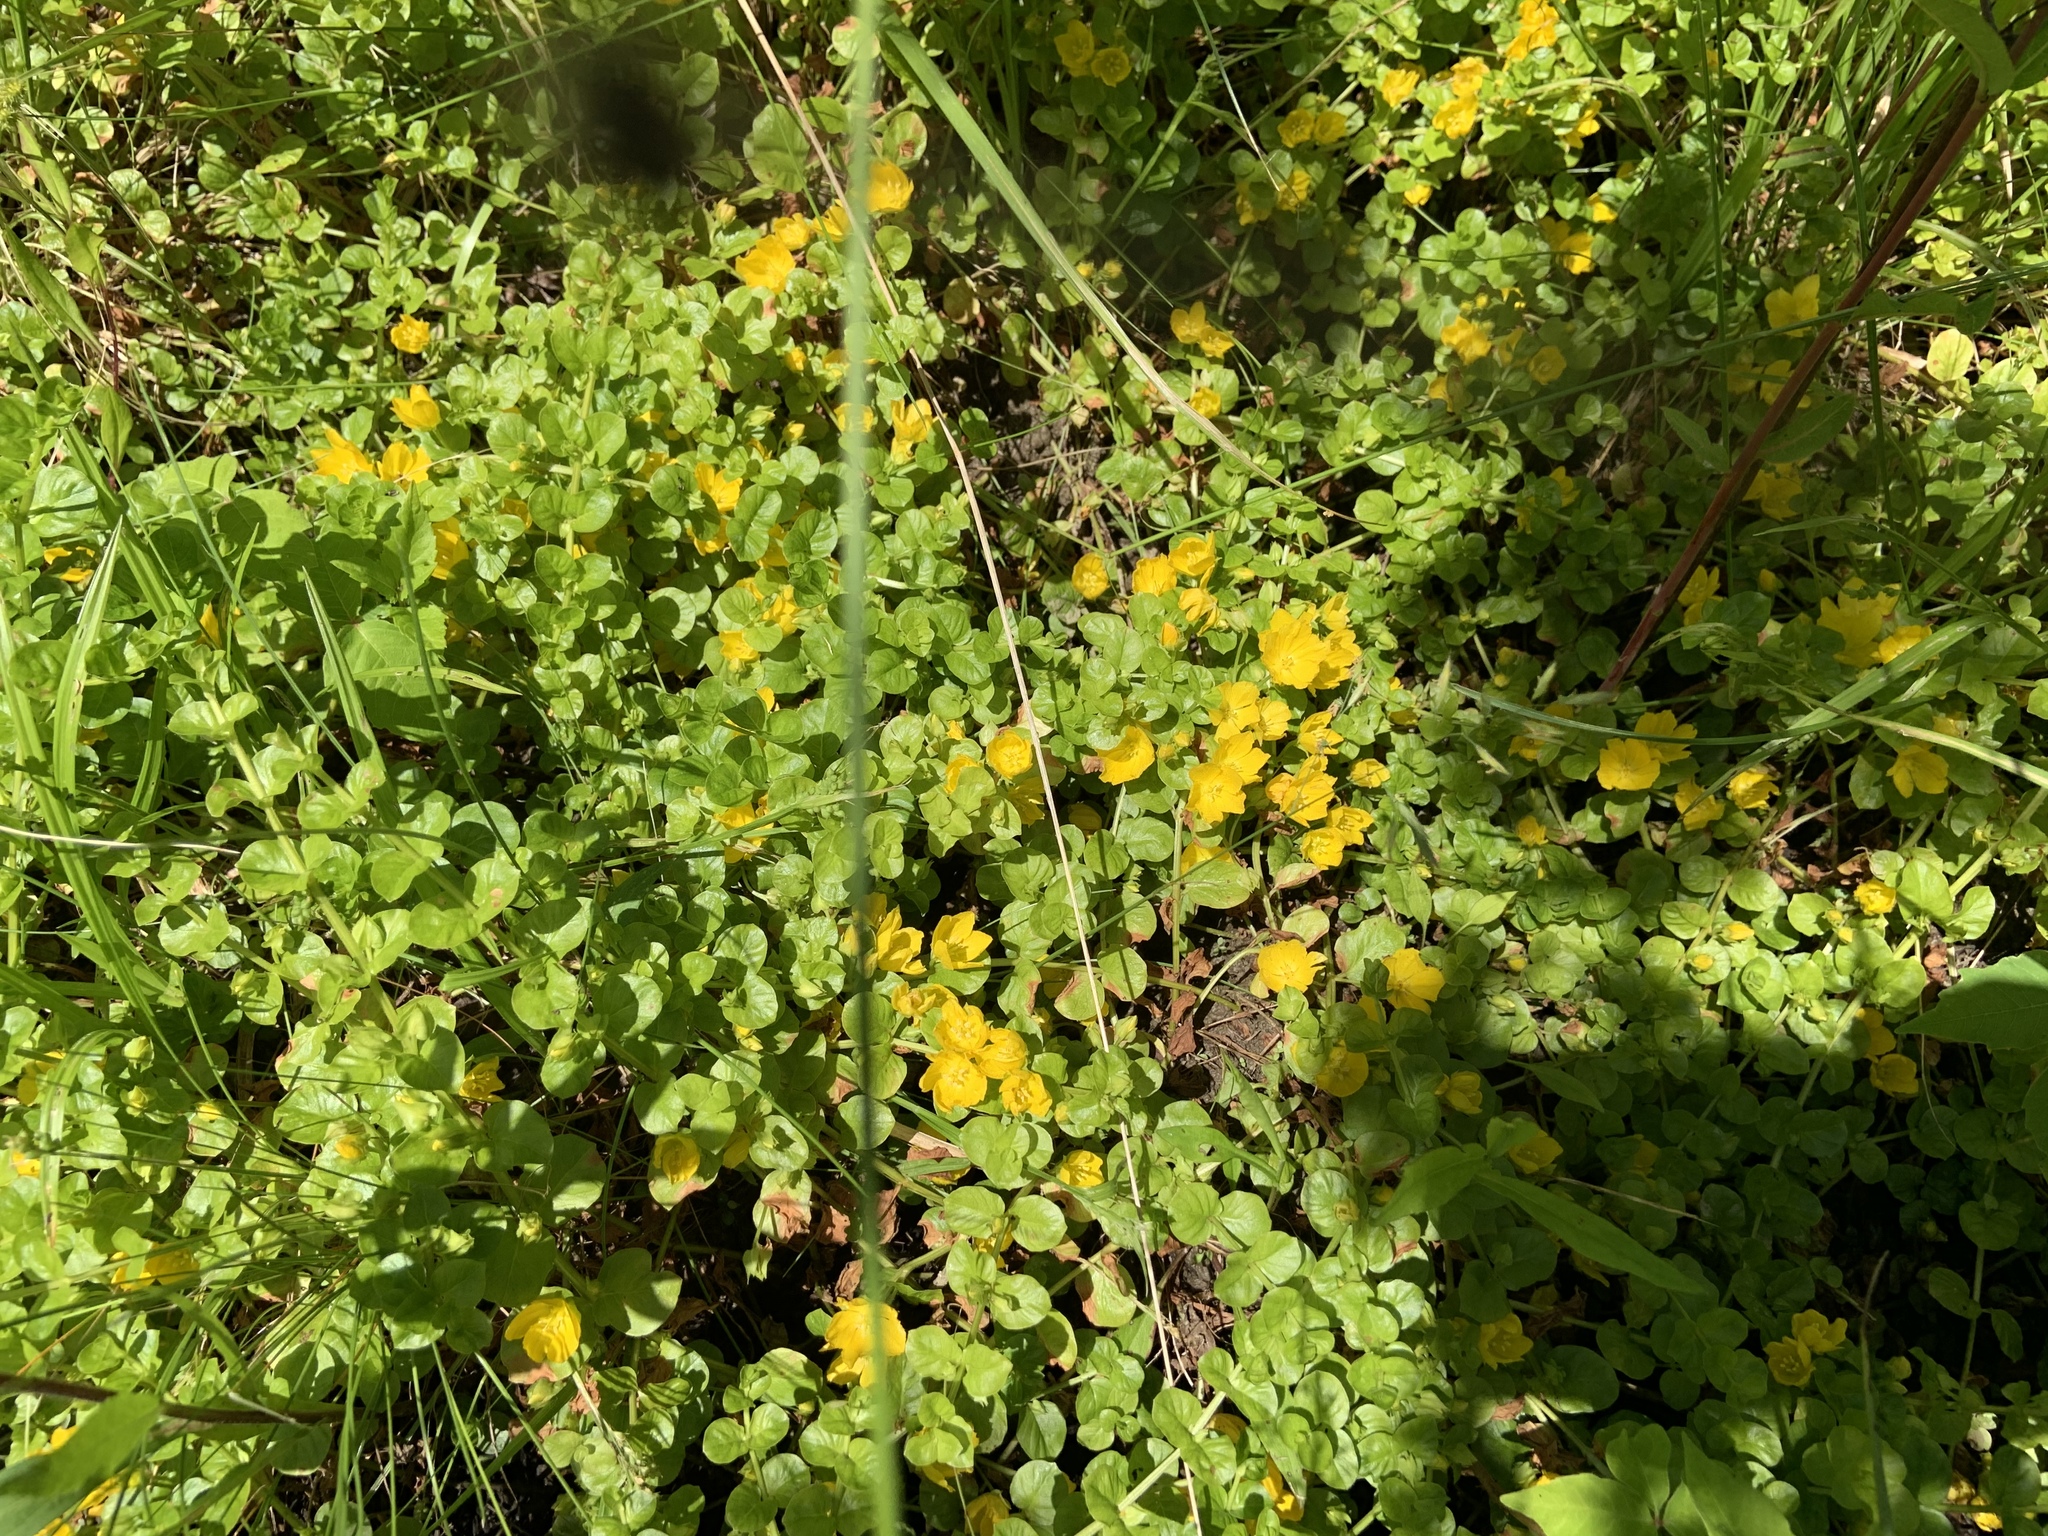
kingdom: Plantae
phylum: Tracheophyta
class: Magnoliopsida
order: Ericales
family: Primulaceae
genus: Lysimachia
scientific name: Lysimachia nummularia
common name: Moneywort
